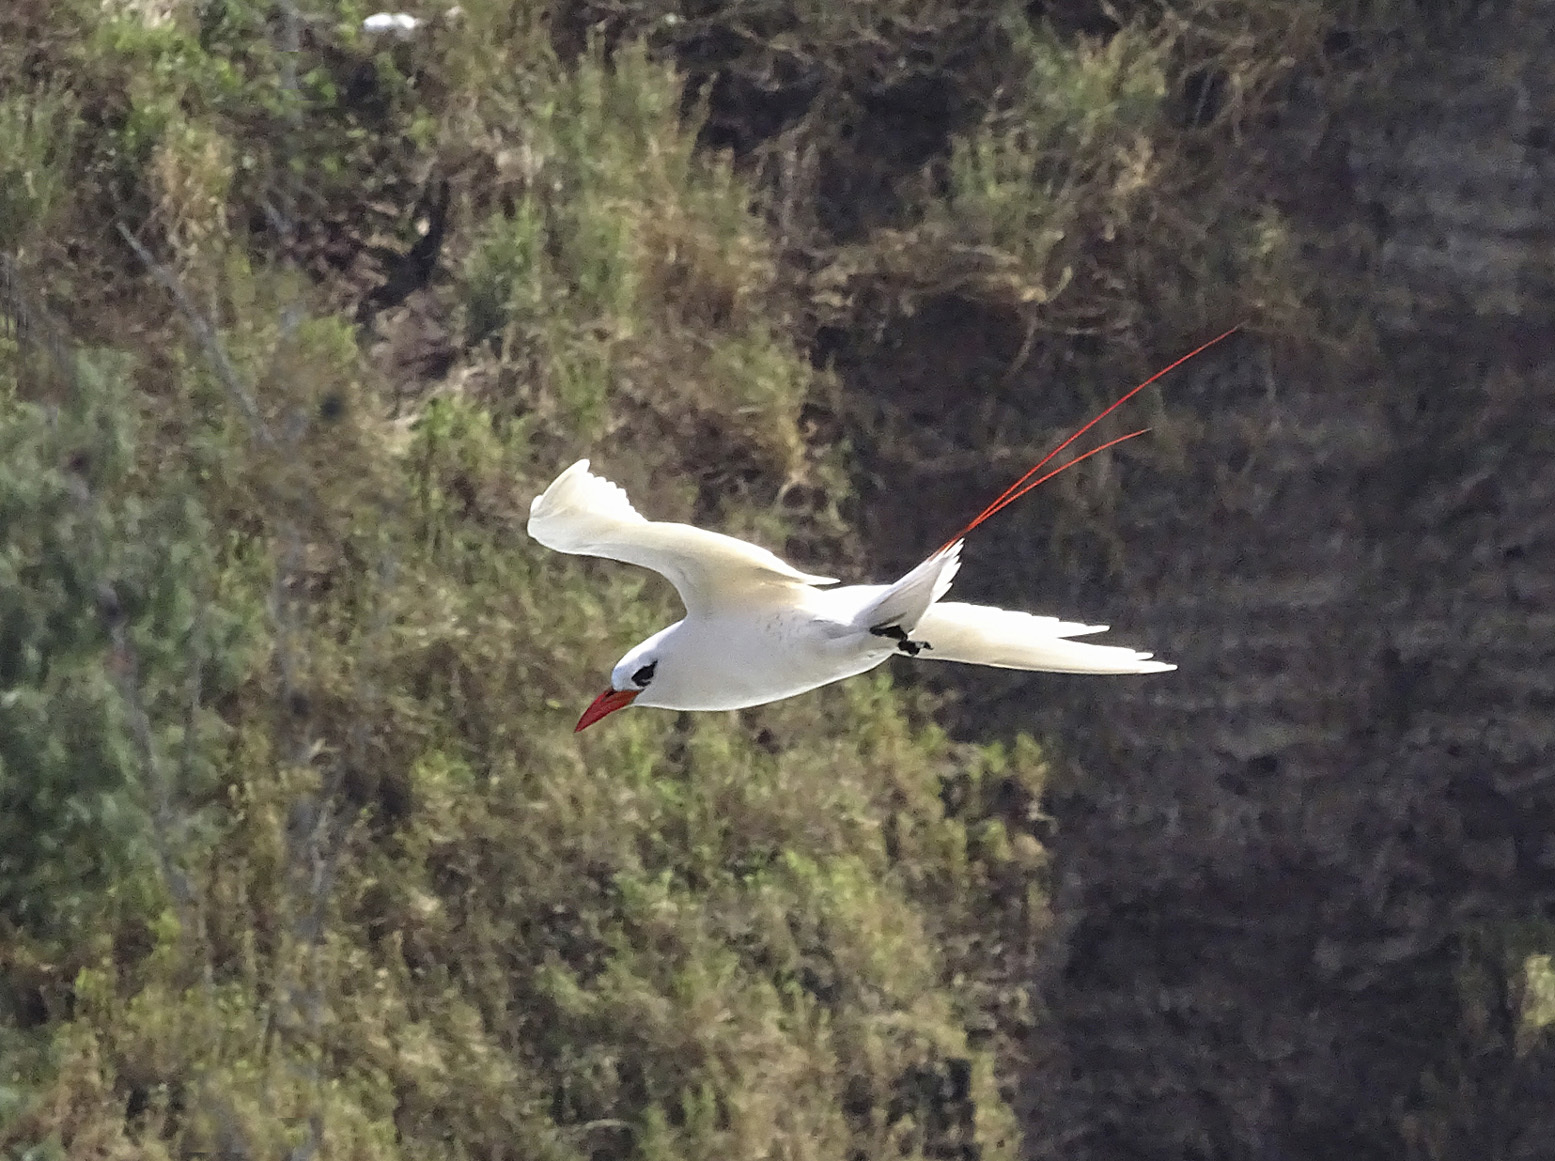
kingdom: Animalia
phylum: Chordata
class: Aves
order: Phaethontiformes
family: Phaethontidae
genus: Phaethon
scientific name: Phaethon rubricauda
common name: Red-tailed tropicbird
